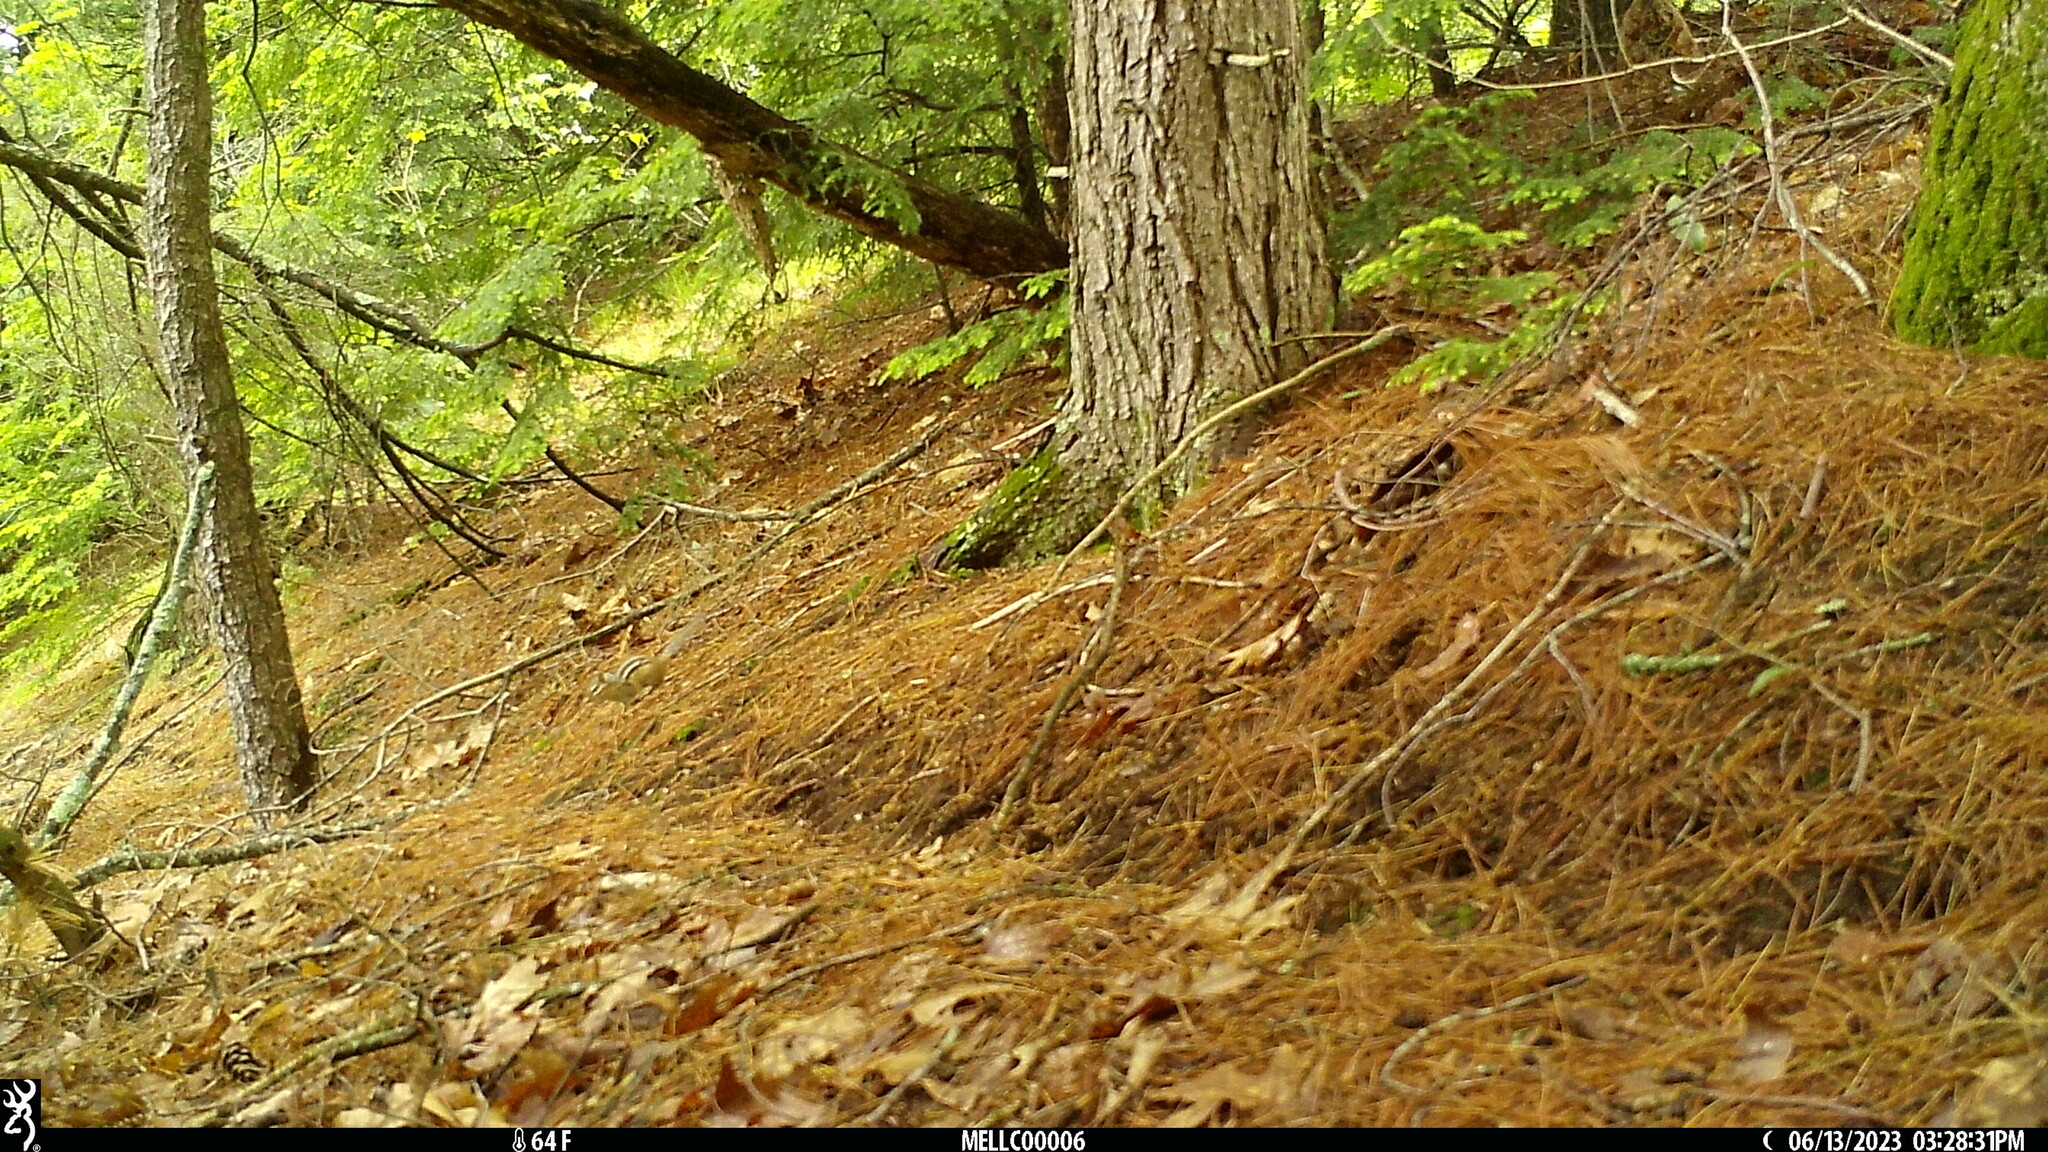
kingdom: Animalia
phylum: Chordata
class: Mammalia
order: Rodentia
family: Sciuridae
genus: Tamias
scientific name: Tamias striatus
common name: Eastern chipmunk
